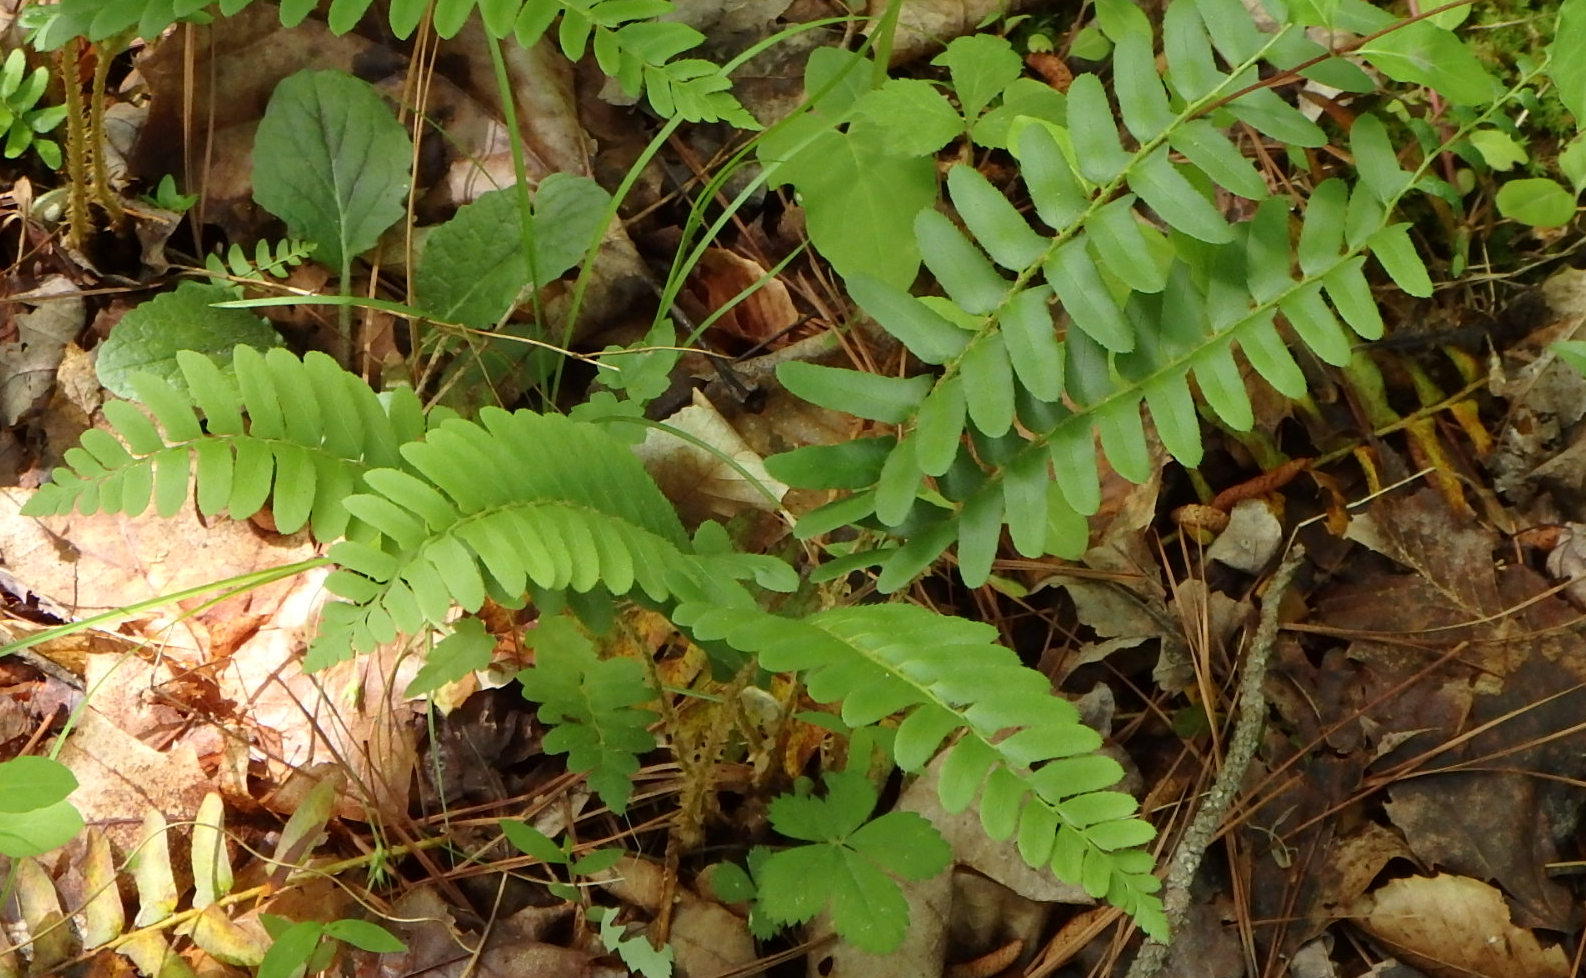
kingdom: Plantae
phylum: Tracheophyta
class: Polypodiopsida
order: Polypodiales
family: Dryopteridaceae
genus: Polystichum
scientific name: Polystichum acrostichoides
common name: Christmas fern
